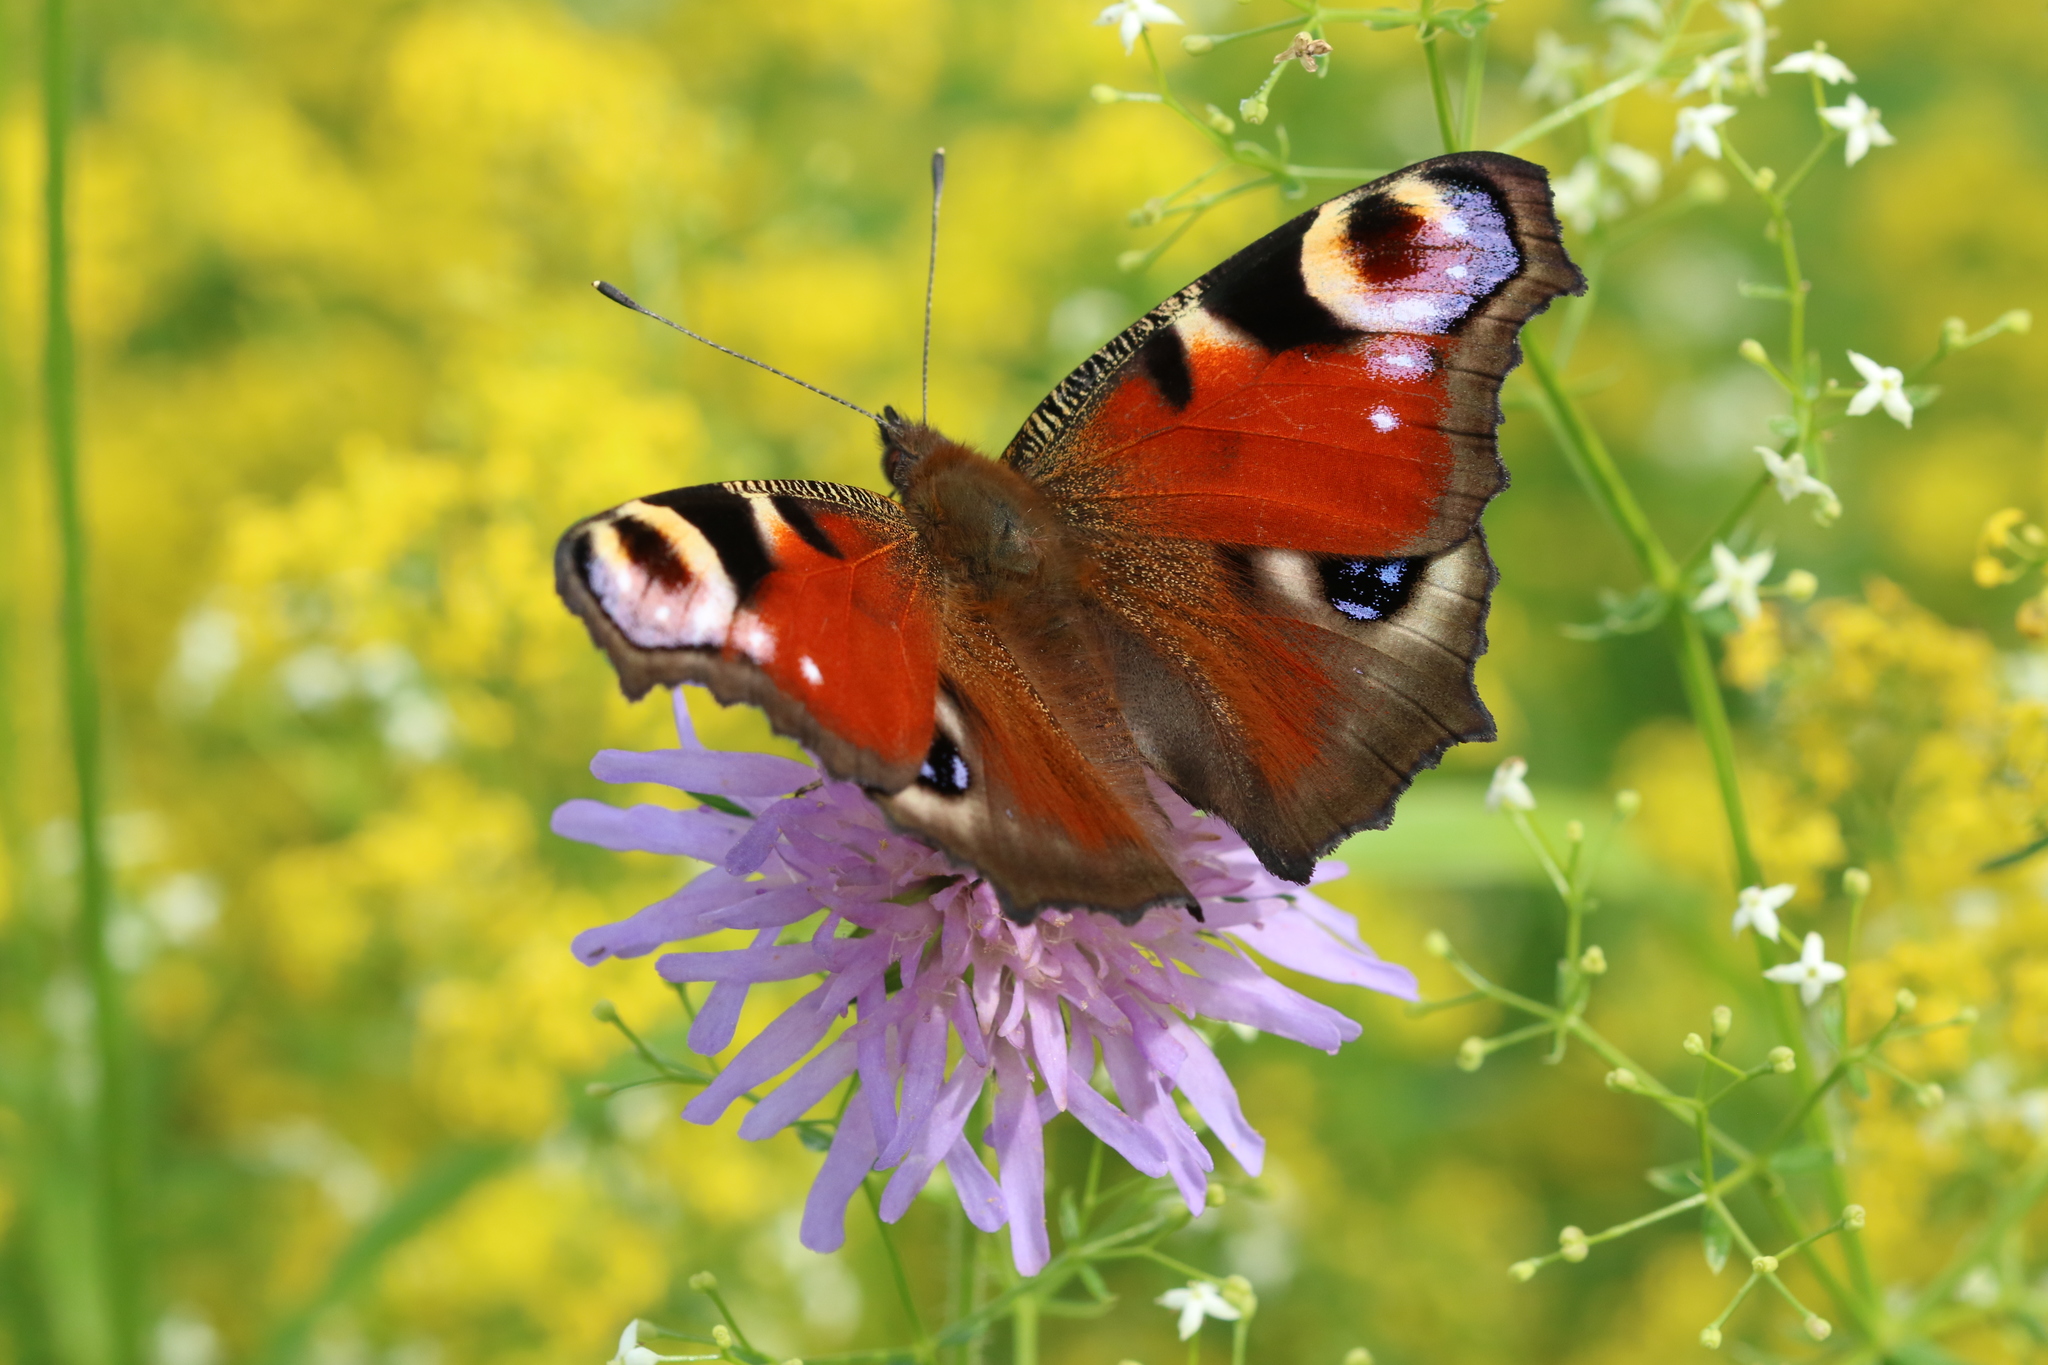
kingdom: Animalia
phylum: Arthropoda
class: Insecta
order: Lepidoptera
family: Nymphalidae
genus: Aglais
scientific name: Aglais io
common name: Peacock
